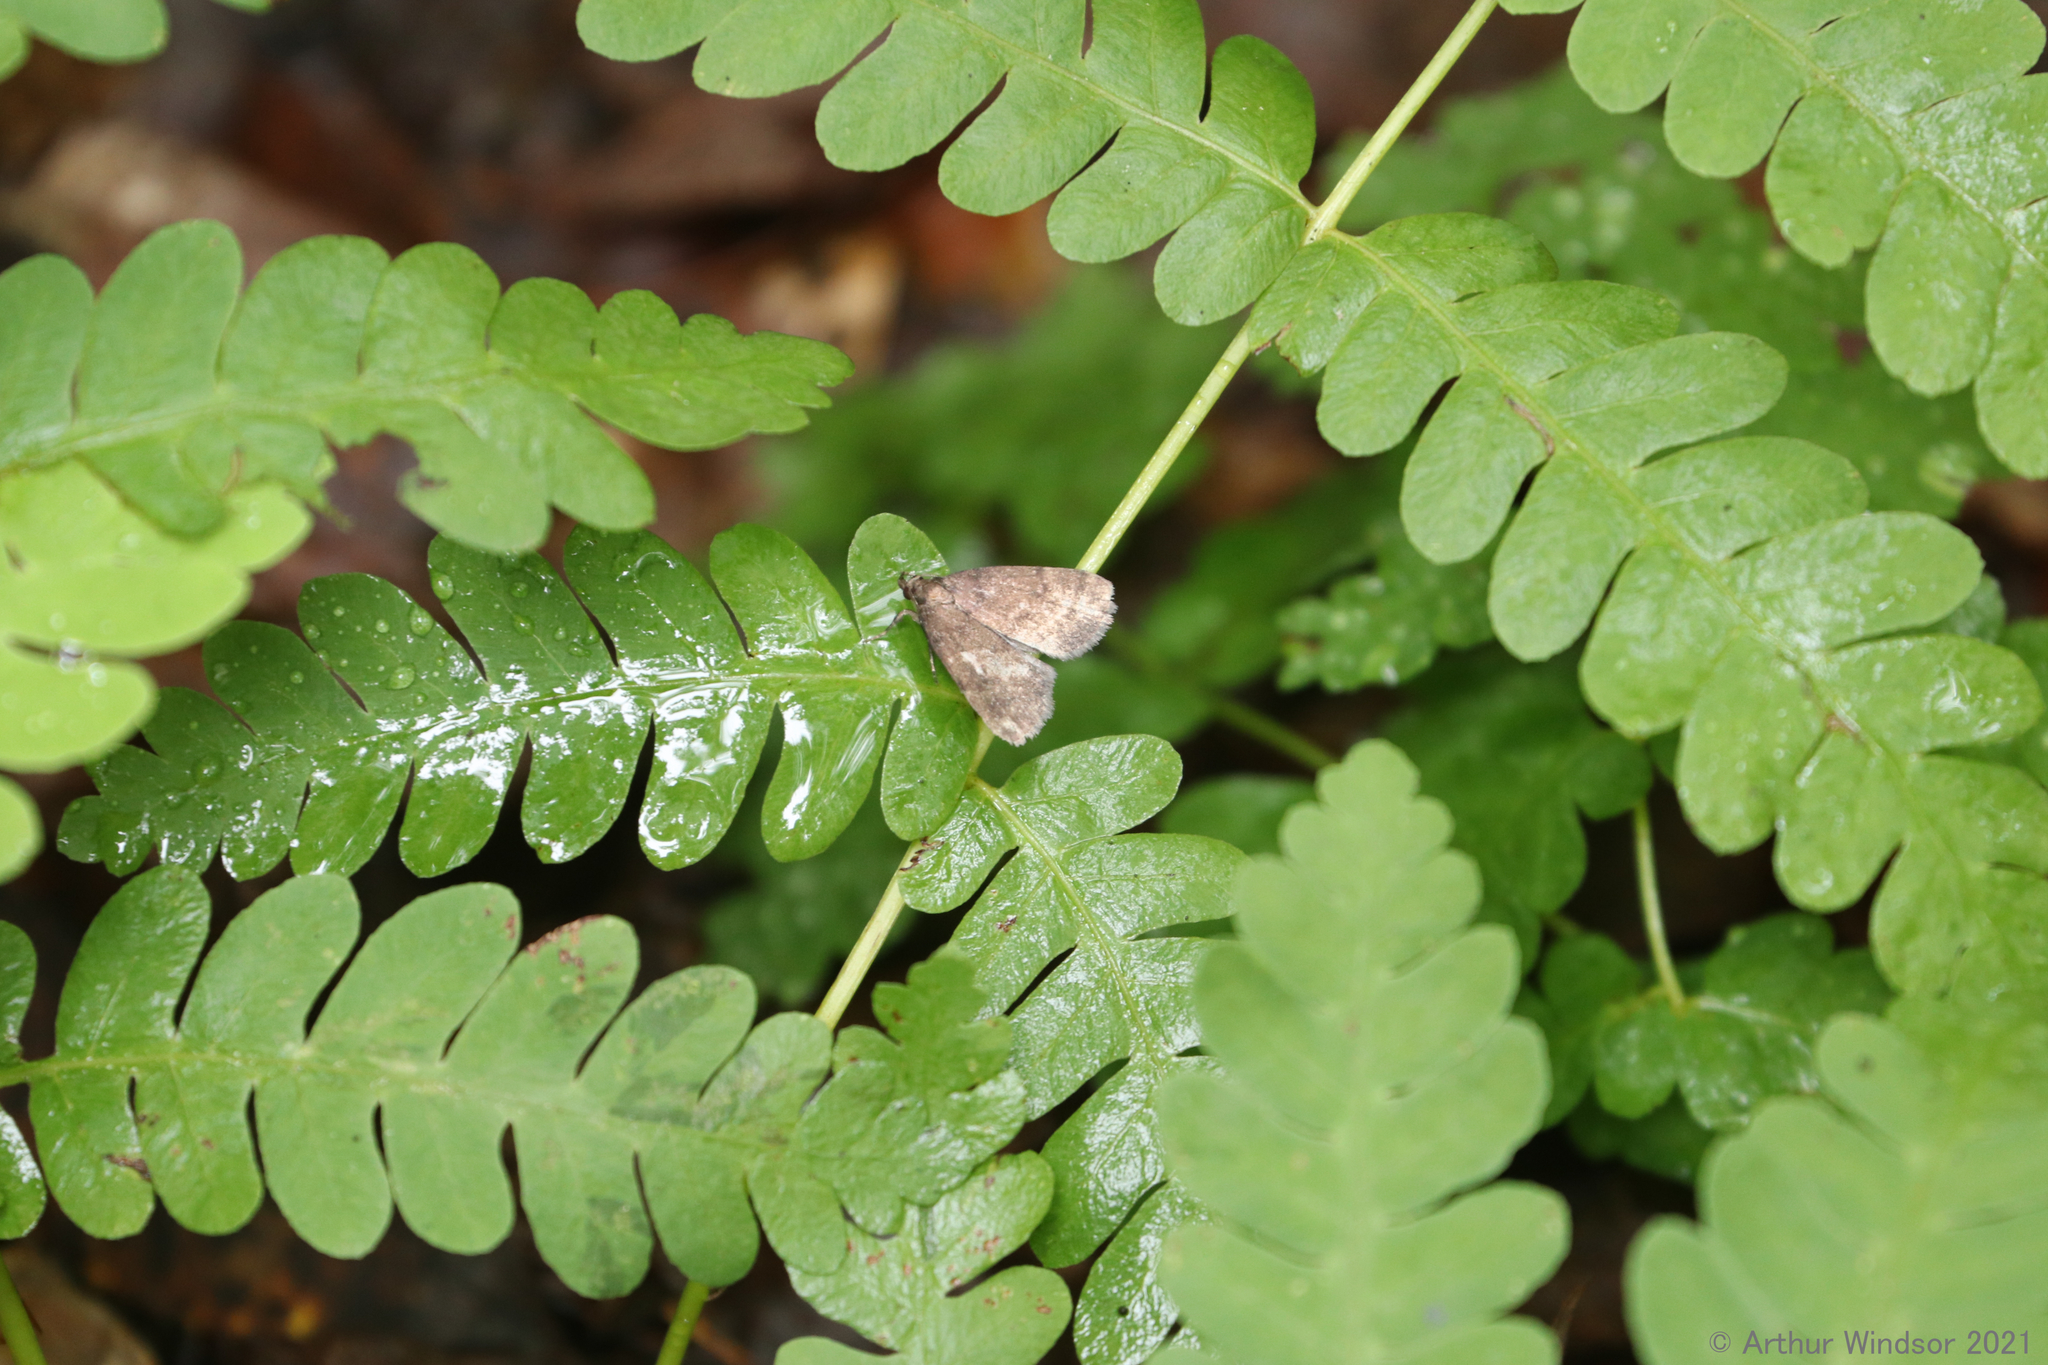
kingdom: Animalia
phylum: Arthropoda
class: Insecta
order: Lepidoptera
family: Erebidae
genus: Idia
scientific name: Idia rotundalis
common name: Rotund idia moth
